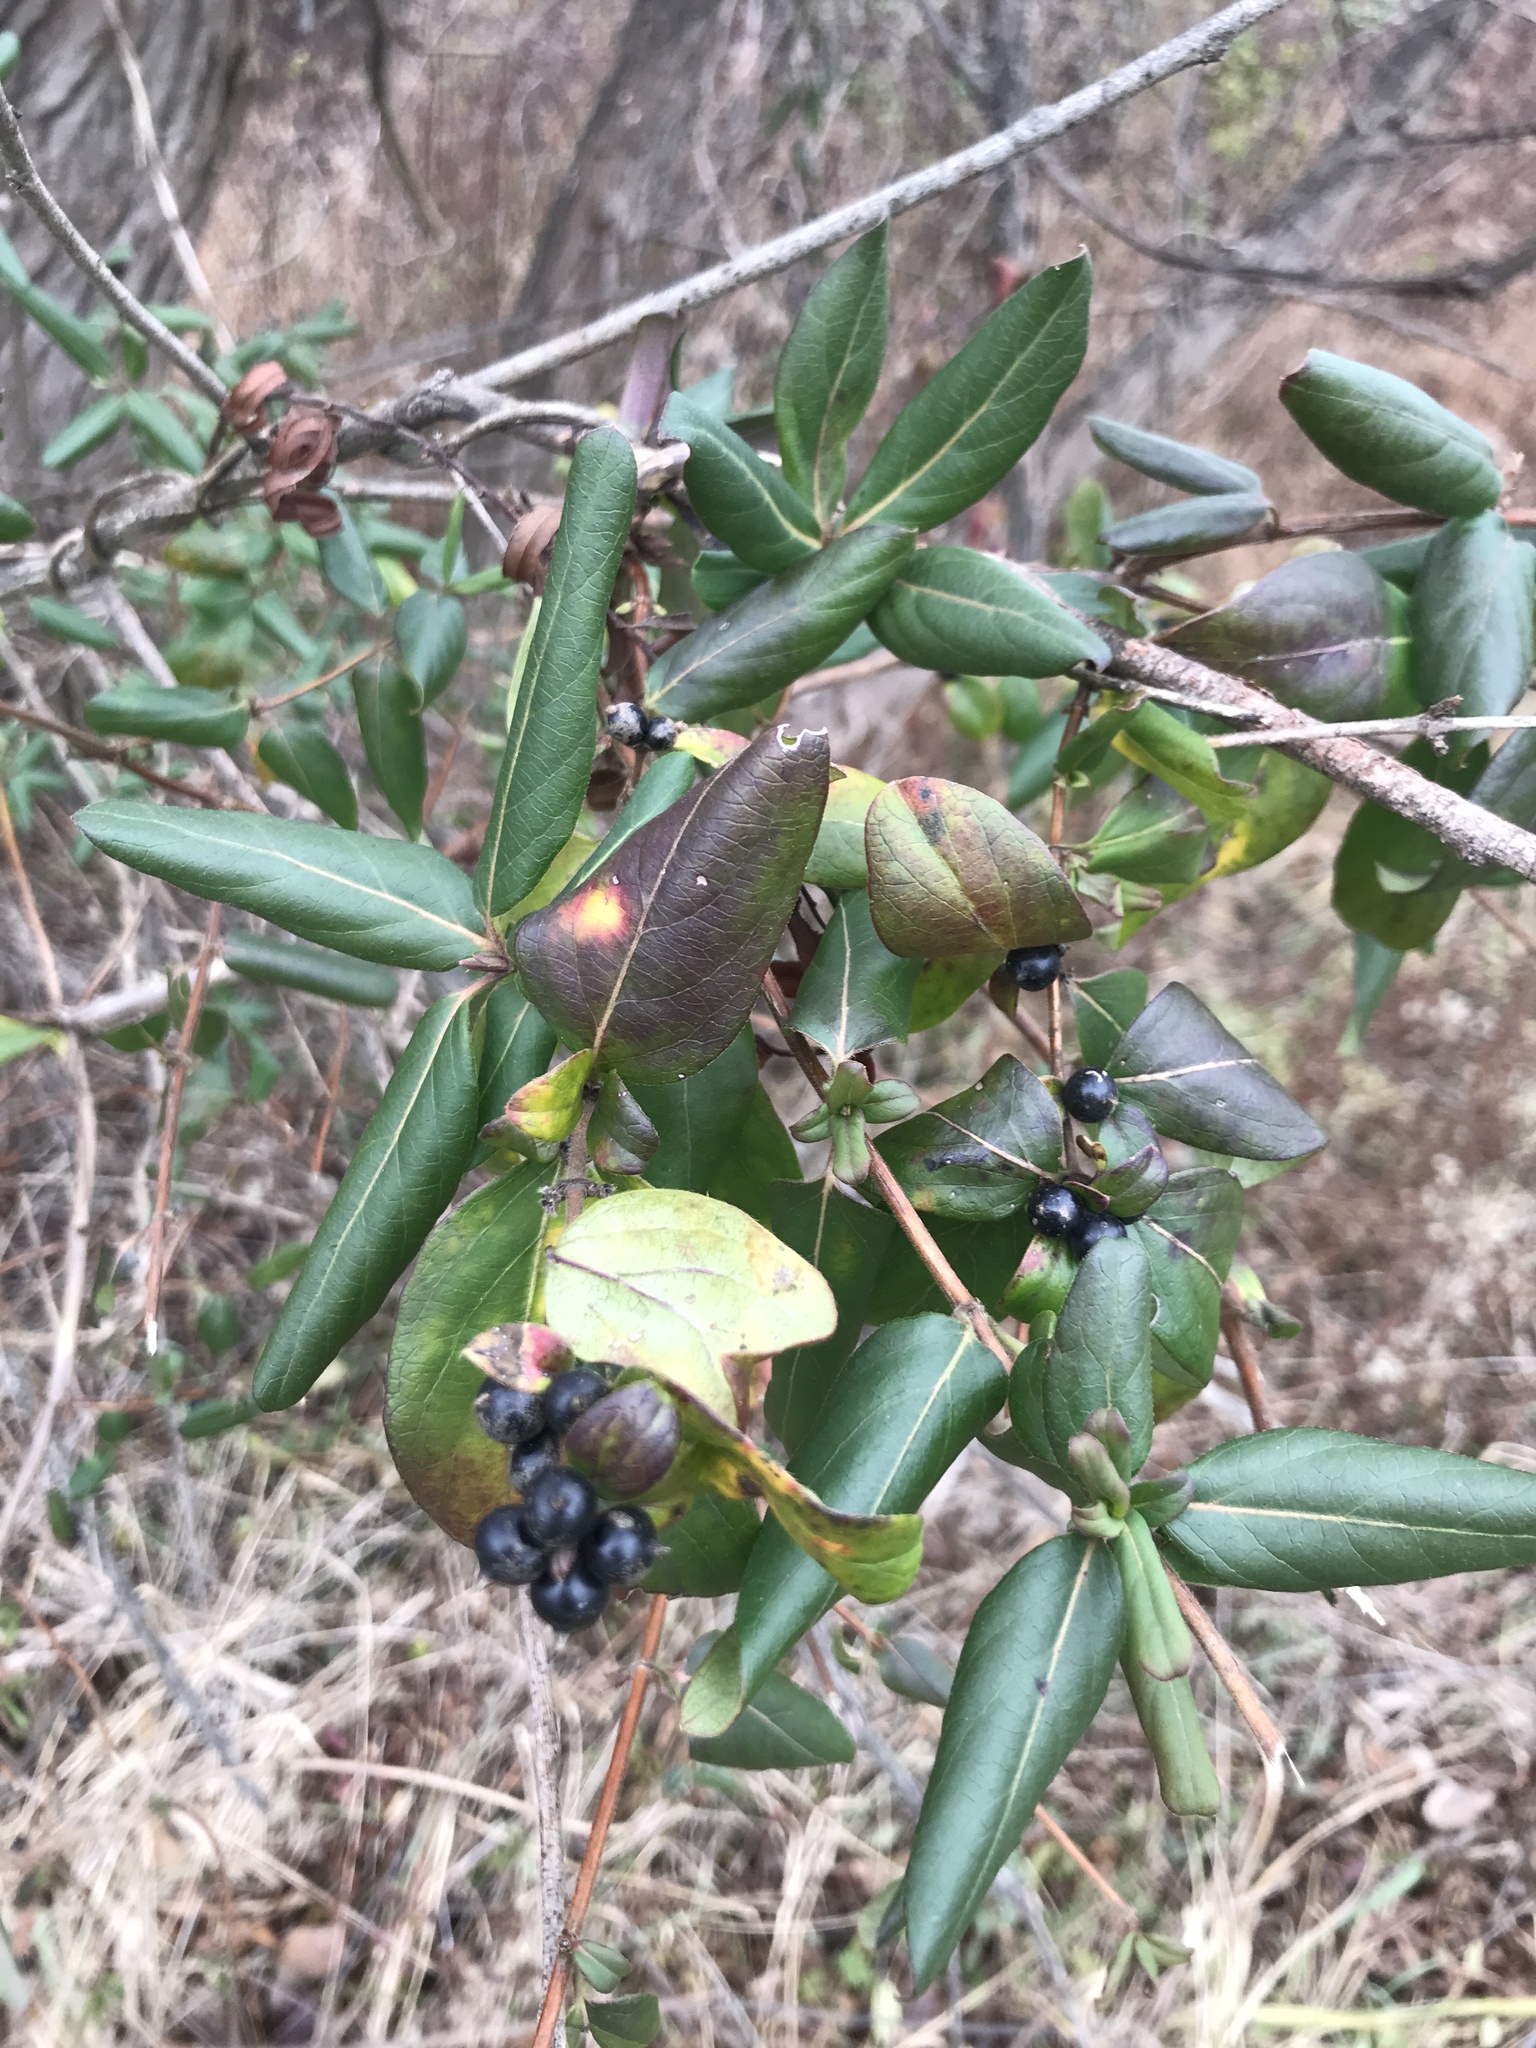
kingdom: Plantae
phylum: Tracheophyta
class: Magnoliopsida
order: Dipsacales
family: Caprifoliaceae
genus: Lonicera
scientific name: Lonicera japonica
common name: Japanese honeysuckle
